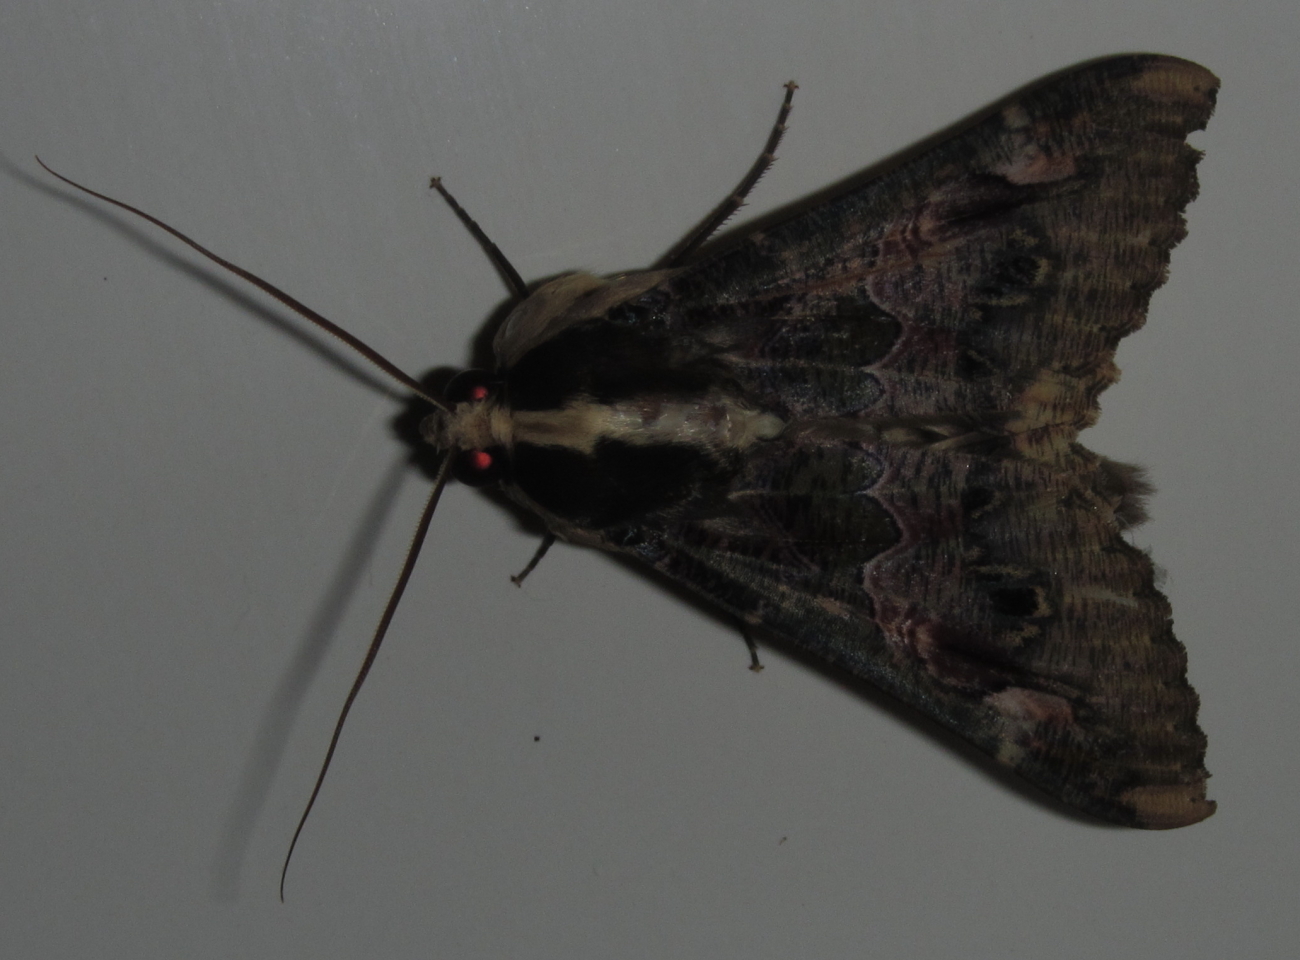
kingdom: Animalia
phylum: Arthropoda
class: Insecta
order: Lepidoptera
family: Erebidae
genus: Sphingomorpha
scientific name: Sphingomorpha chlorea
